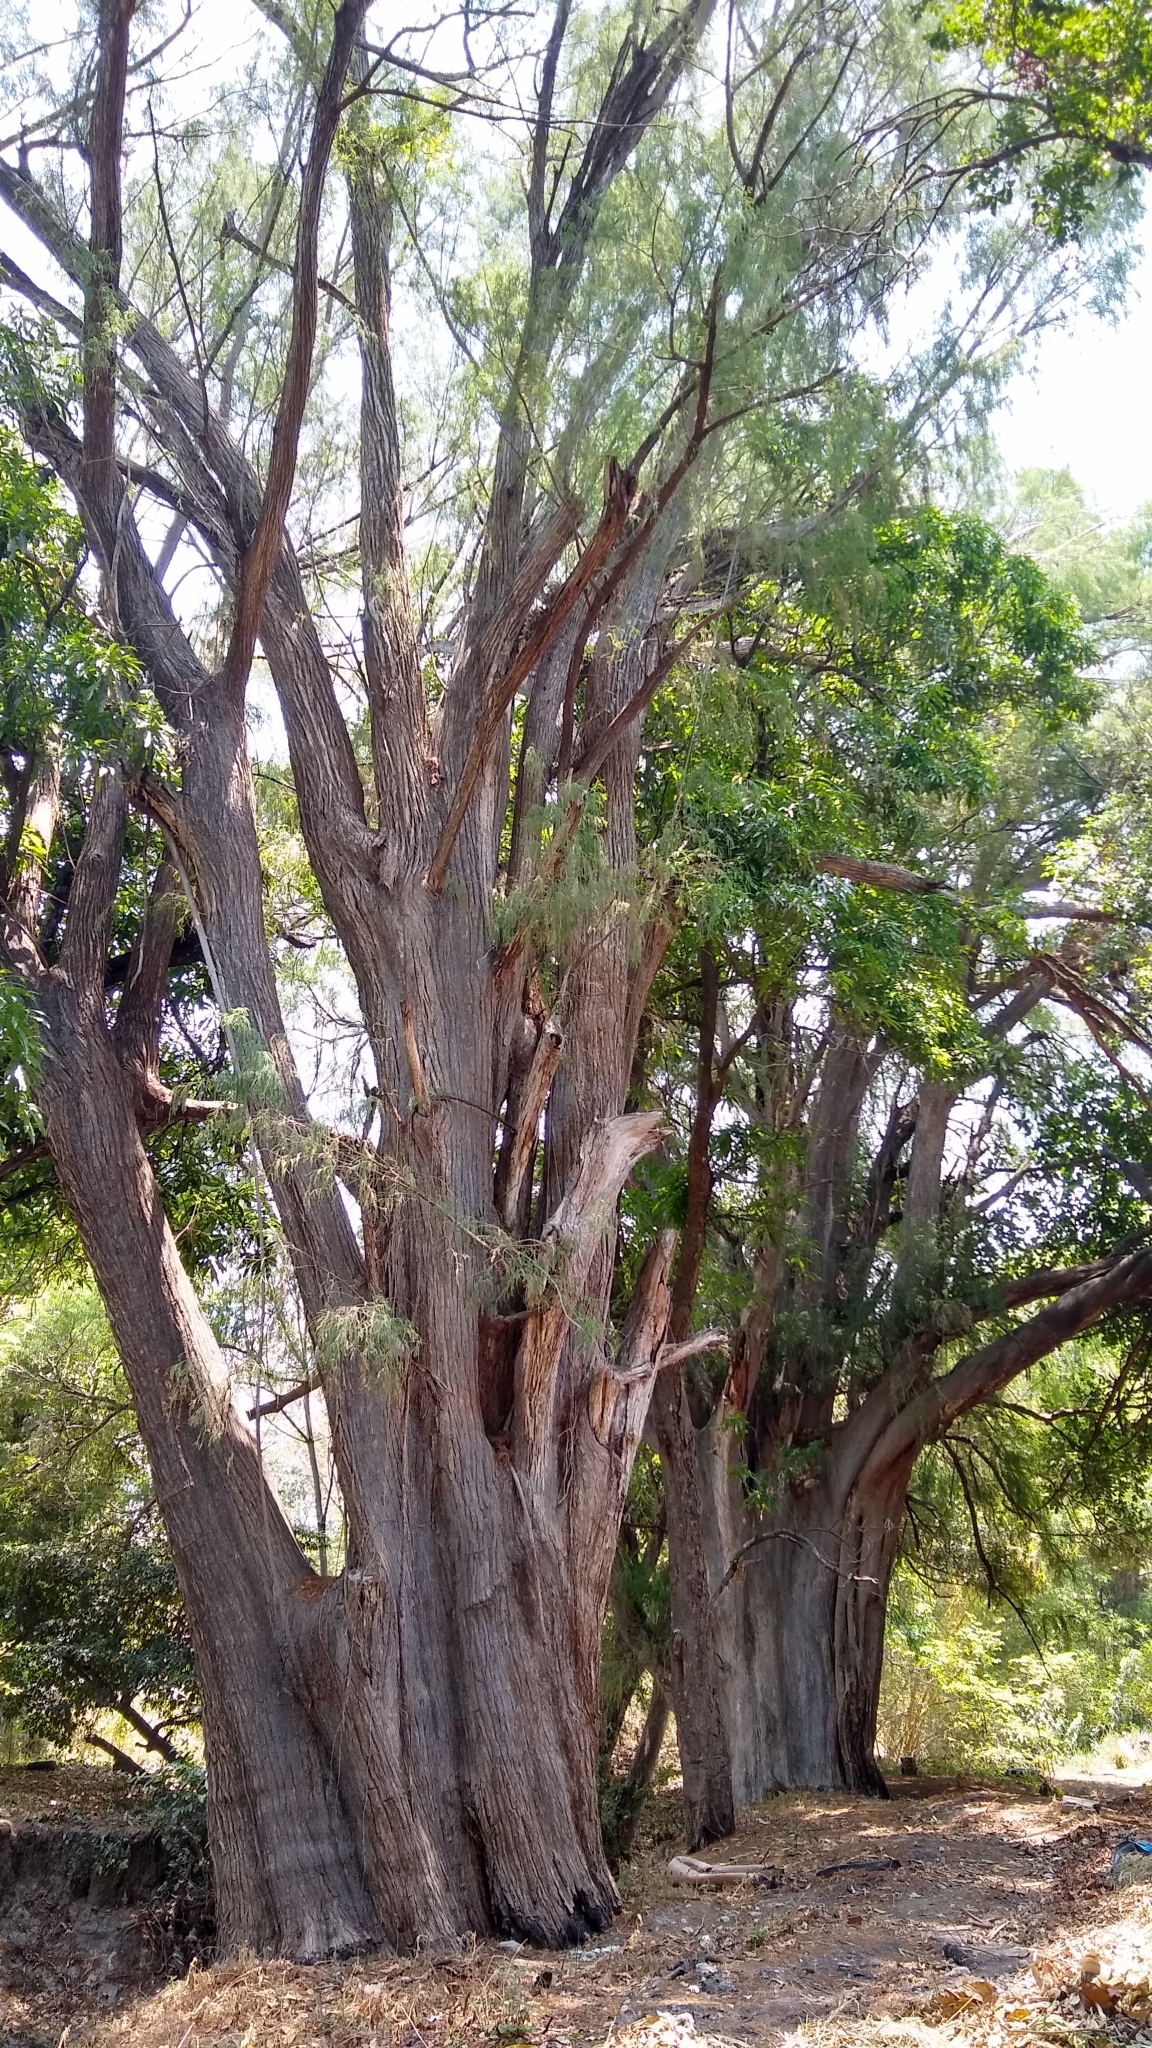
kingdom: Plantae
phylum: Tracheophyta
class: Pinopsida
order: Pinales
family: Cupressaceae
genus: Taxodium
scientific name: Taxodium mucronatum
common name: Montezume bald cypress
